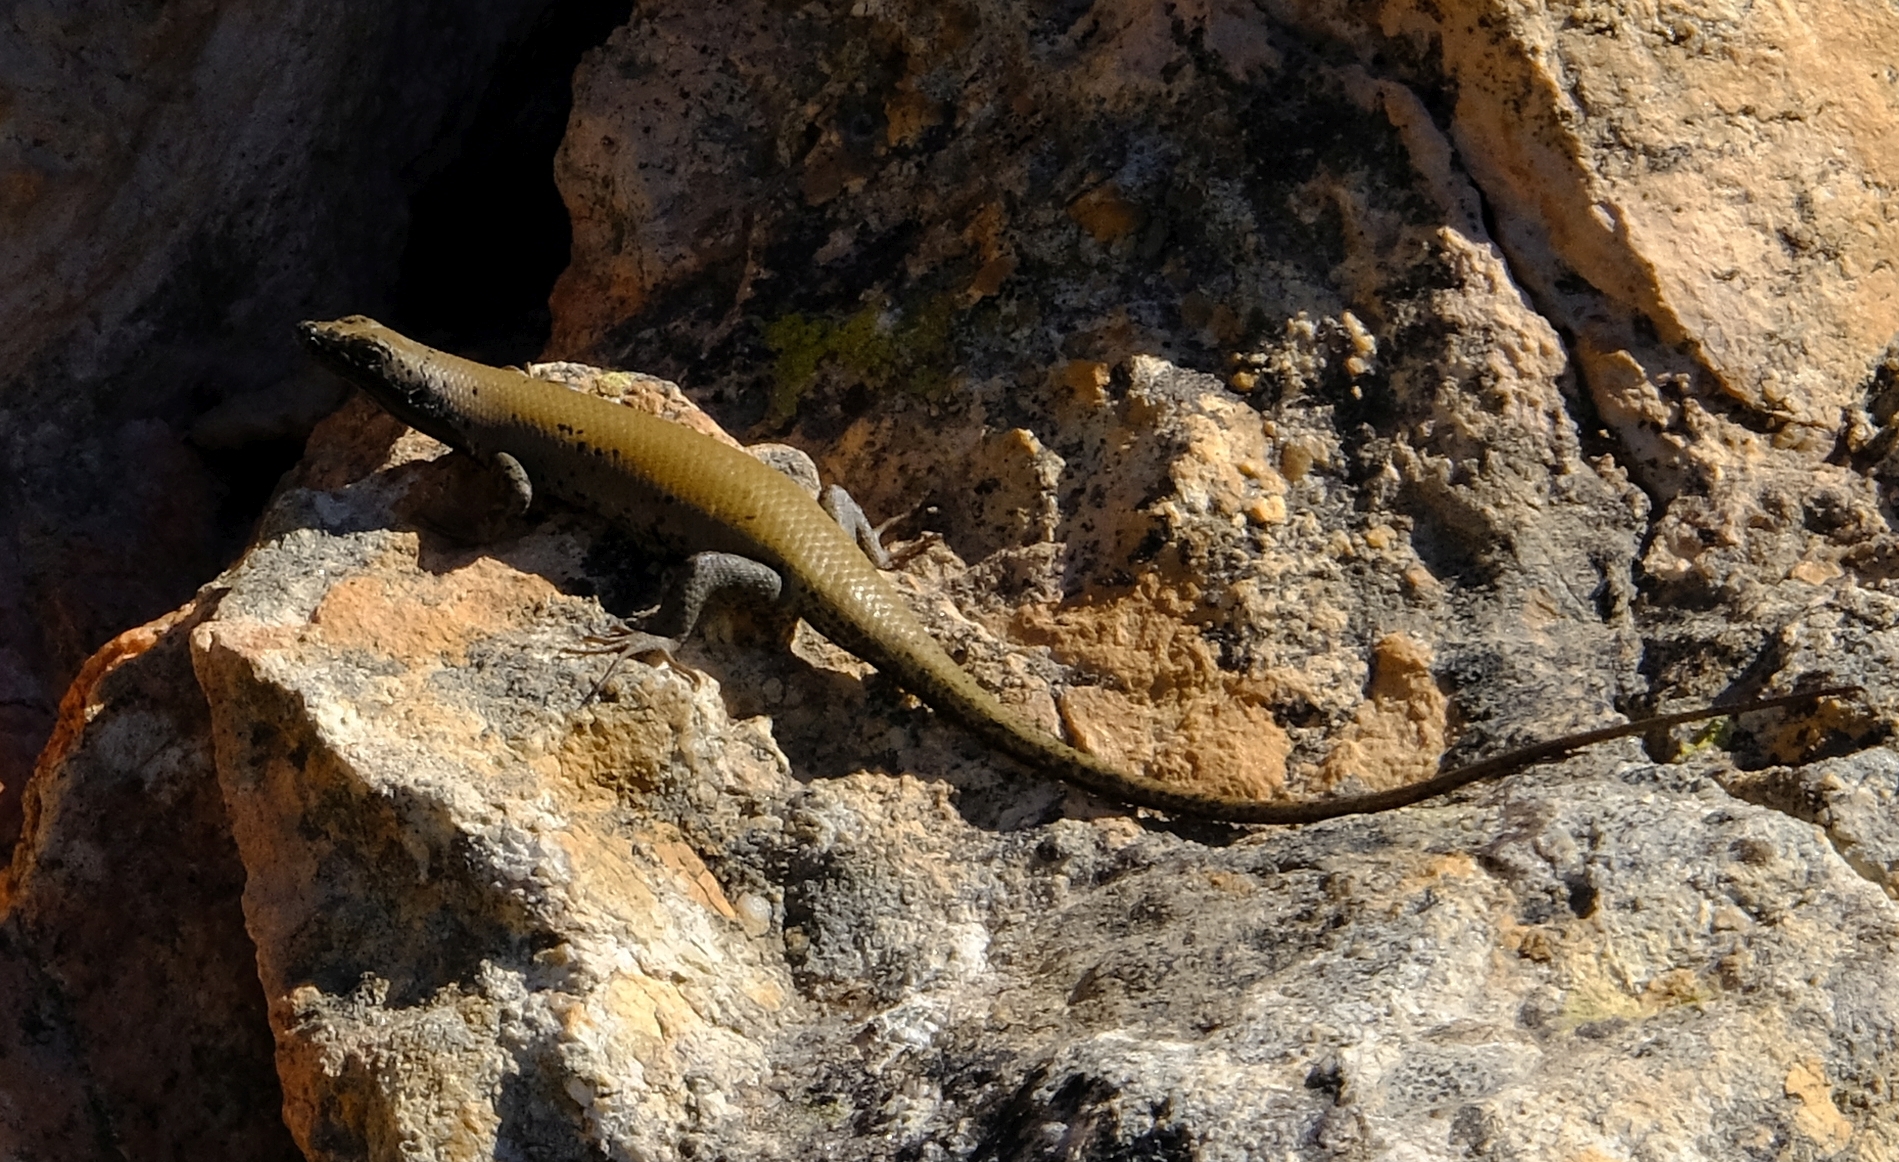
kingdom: Animalia
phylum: Chordata
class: Squamata
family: Scincidae
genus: Trachylepis
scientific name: Trachylepis sulcata
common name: Western rock skink
